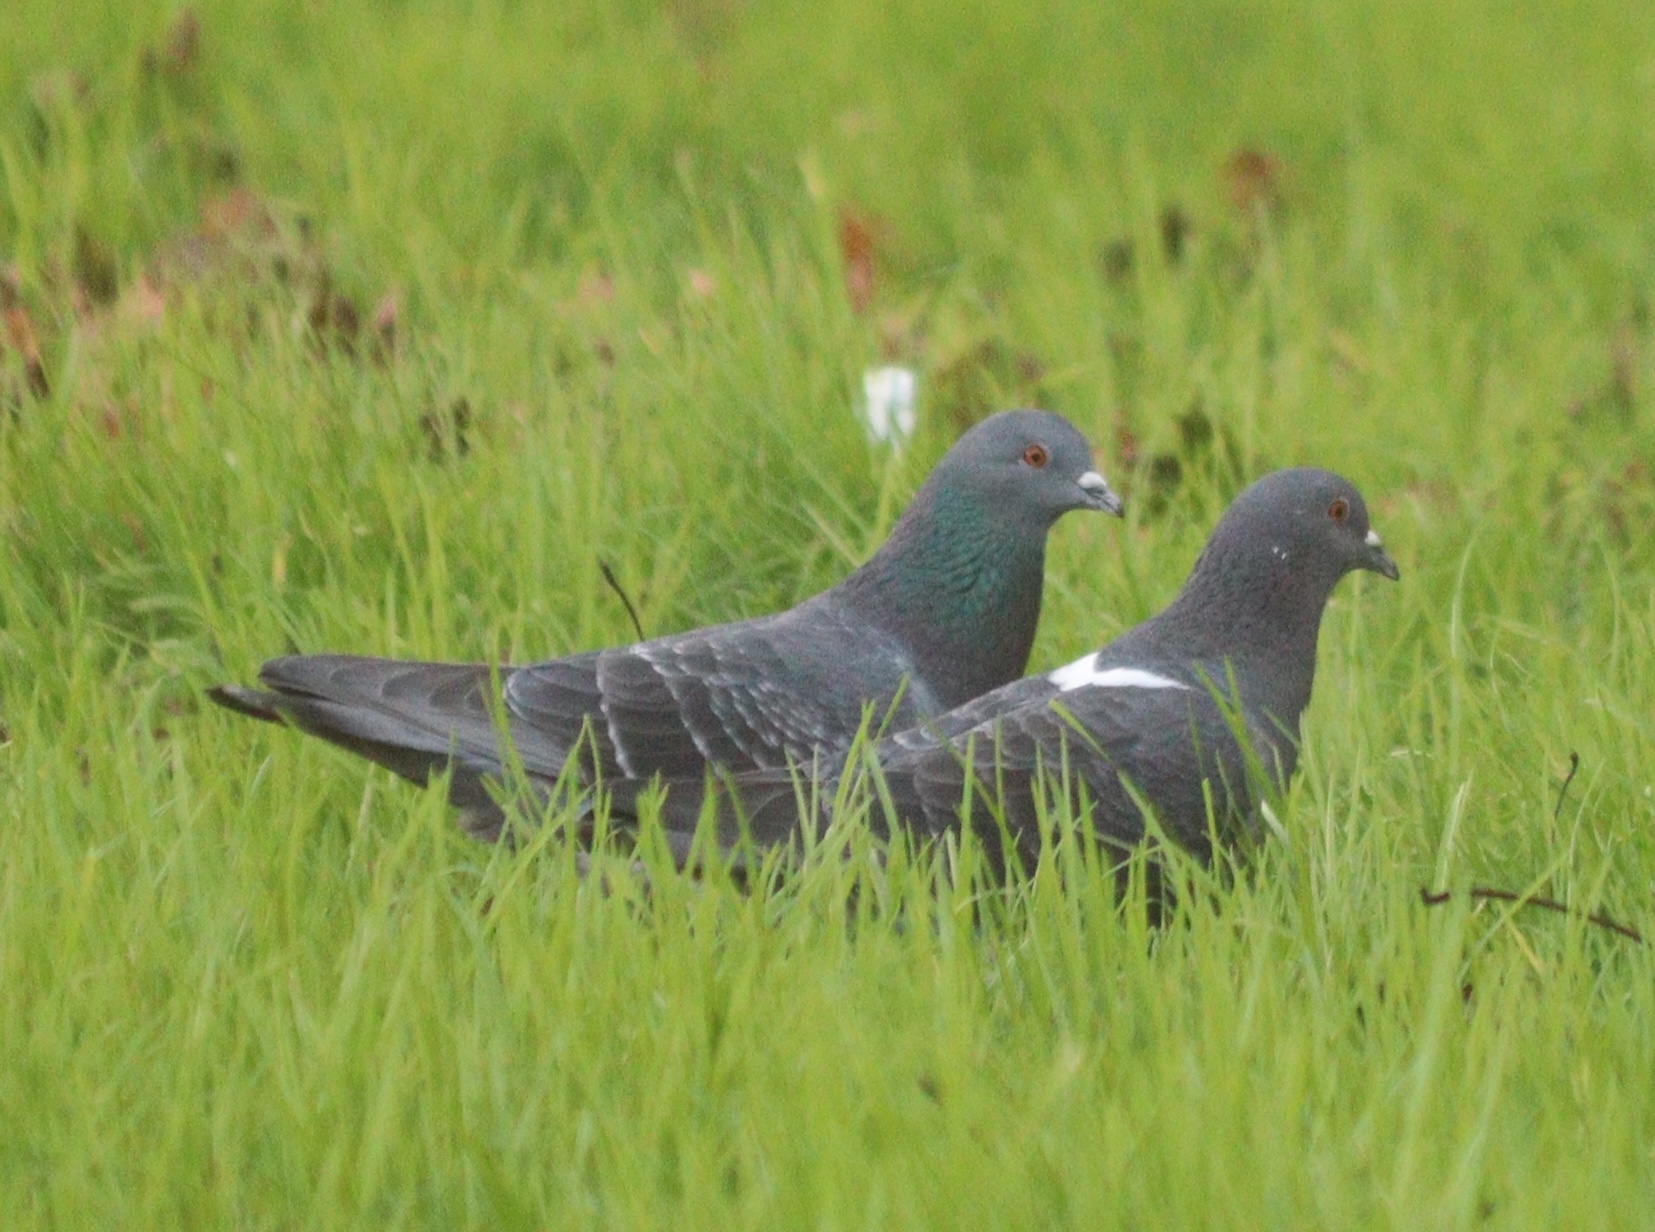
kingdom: Animalia
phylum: Chordata
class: Aves
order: Columbiformes
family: Columbidae
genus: Columba
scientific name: Columba livia
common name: Rock pigeon
